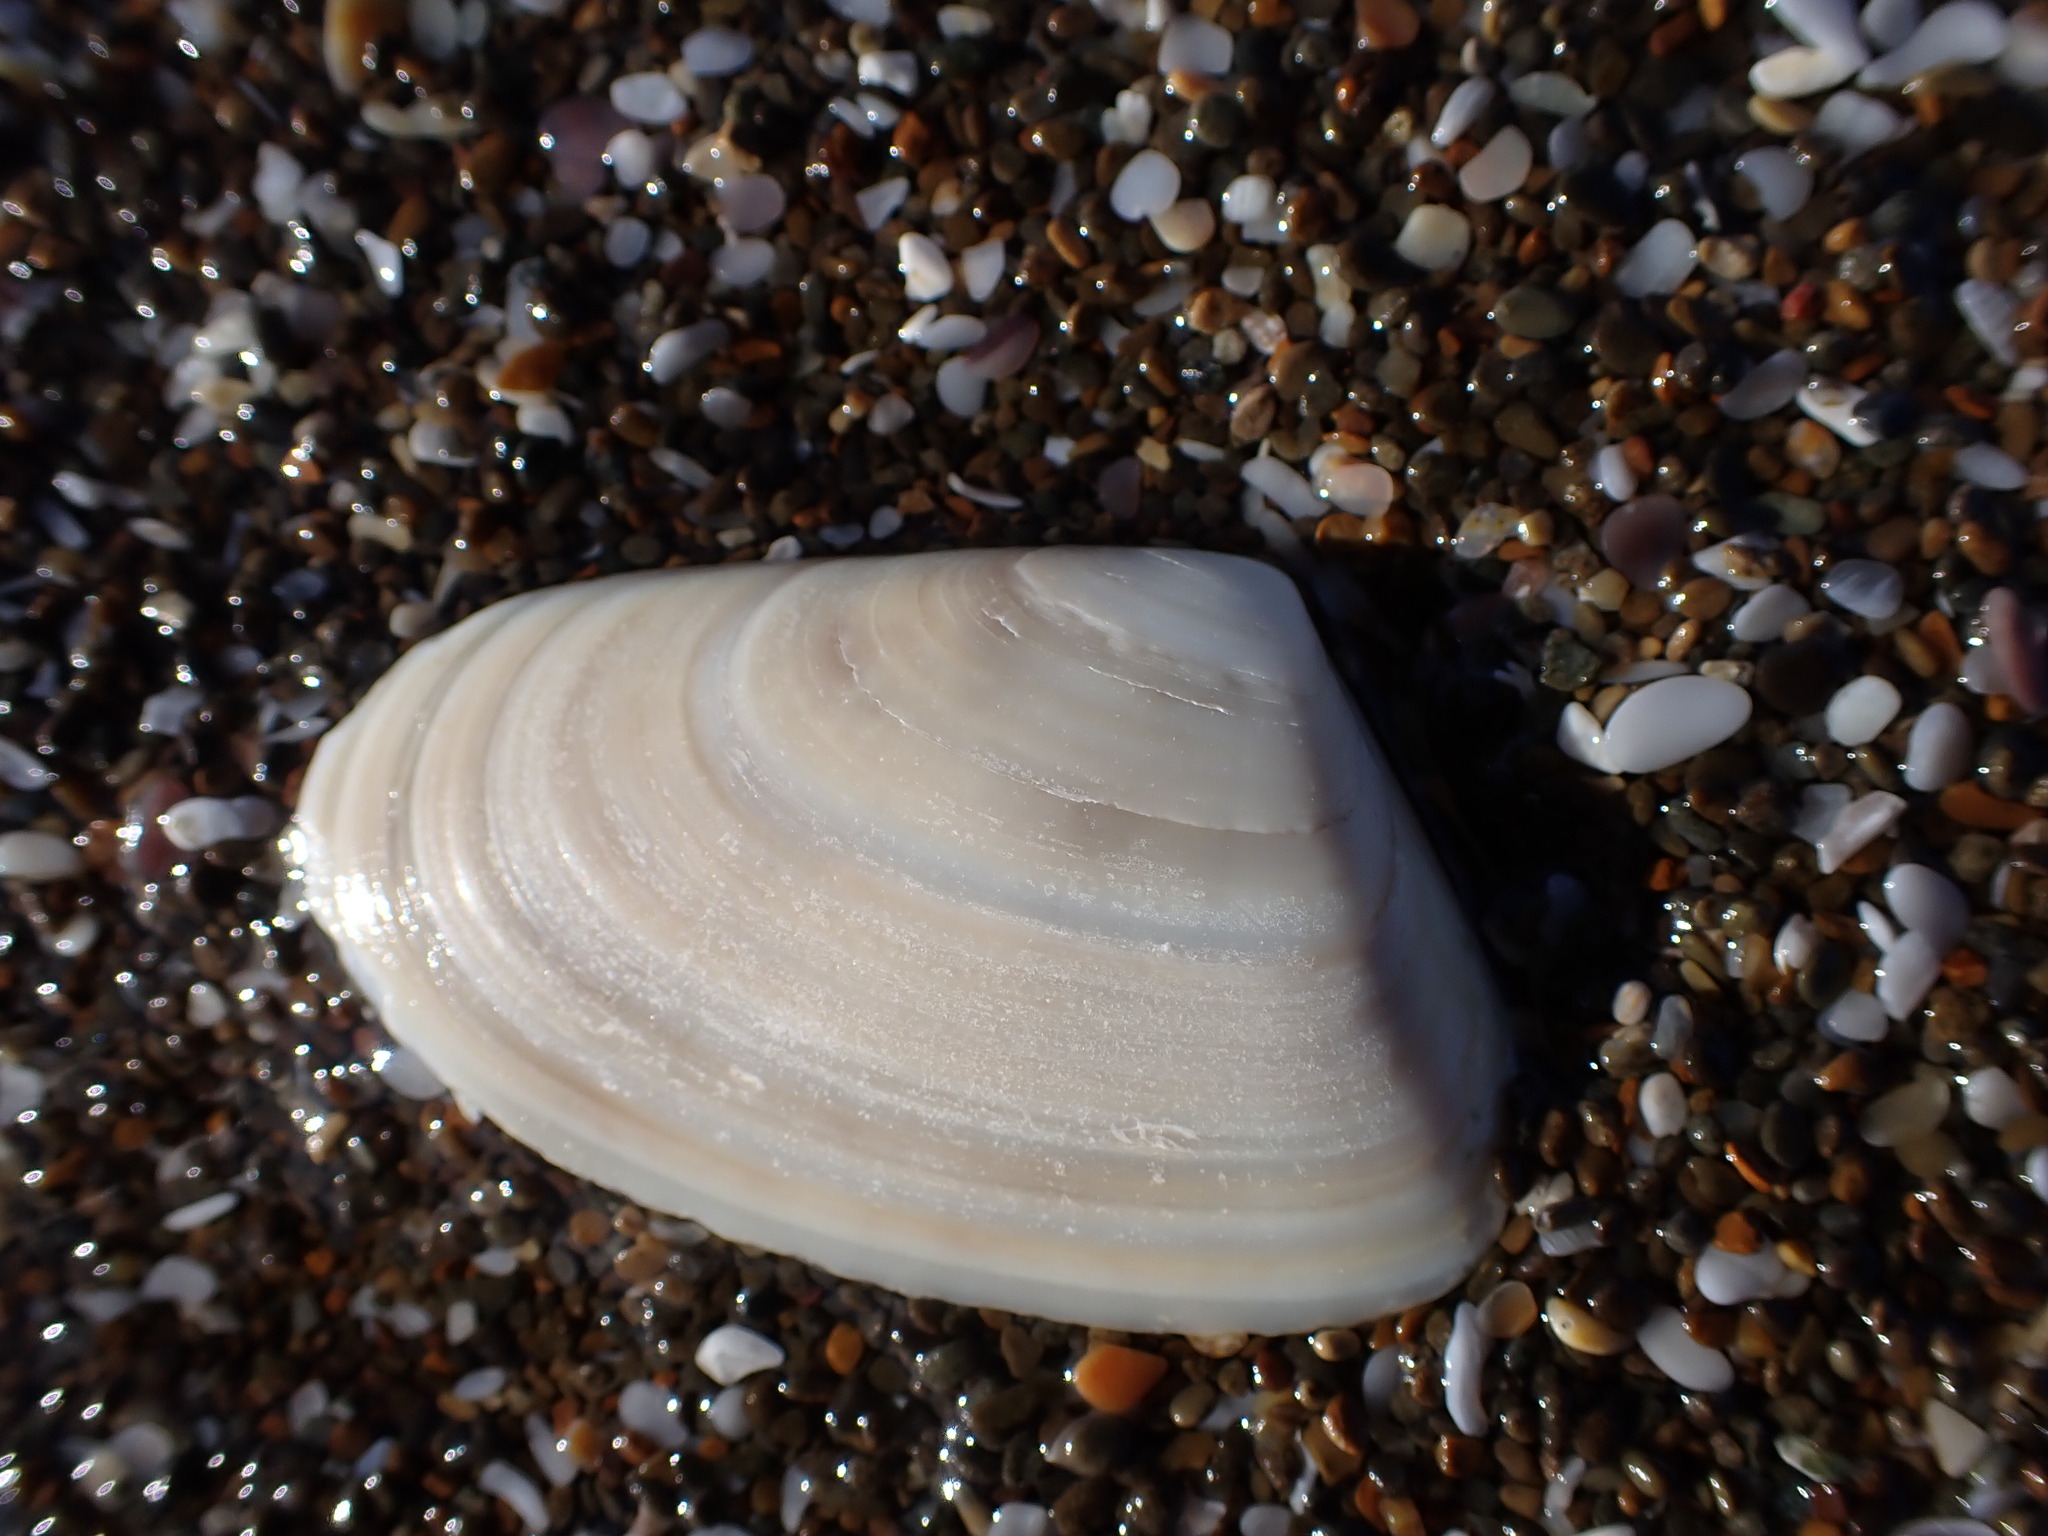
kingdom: Animalia
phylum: Mollusca
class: Bivalvia
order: Venerida
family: Mesodesmatidae
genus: Paphies
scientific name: Paphies subtriangulata
